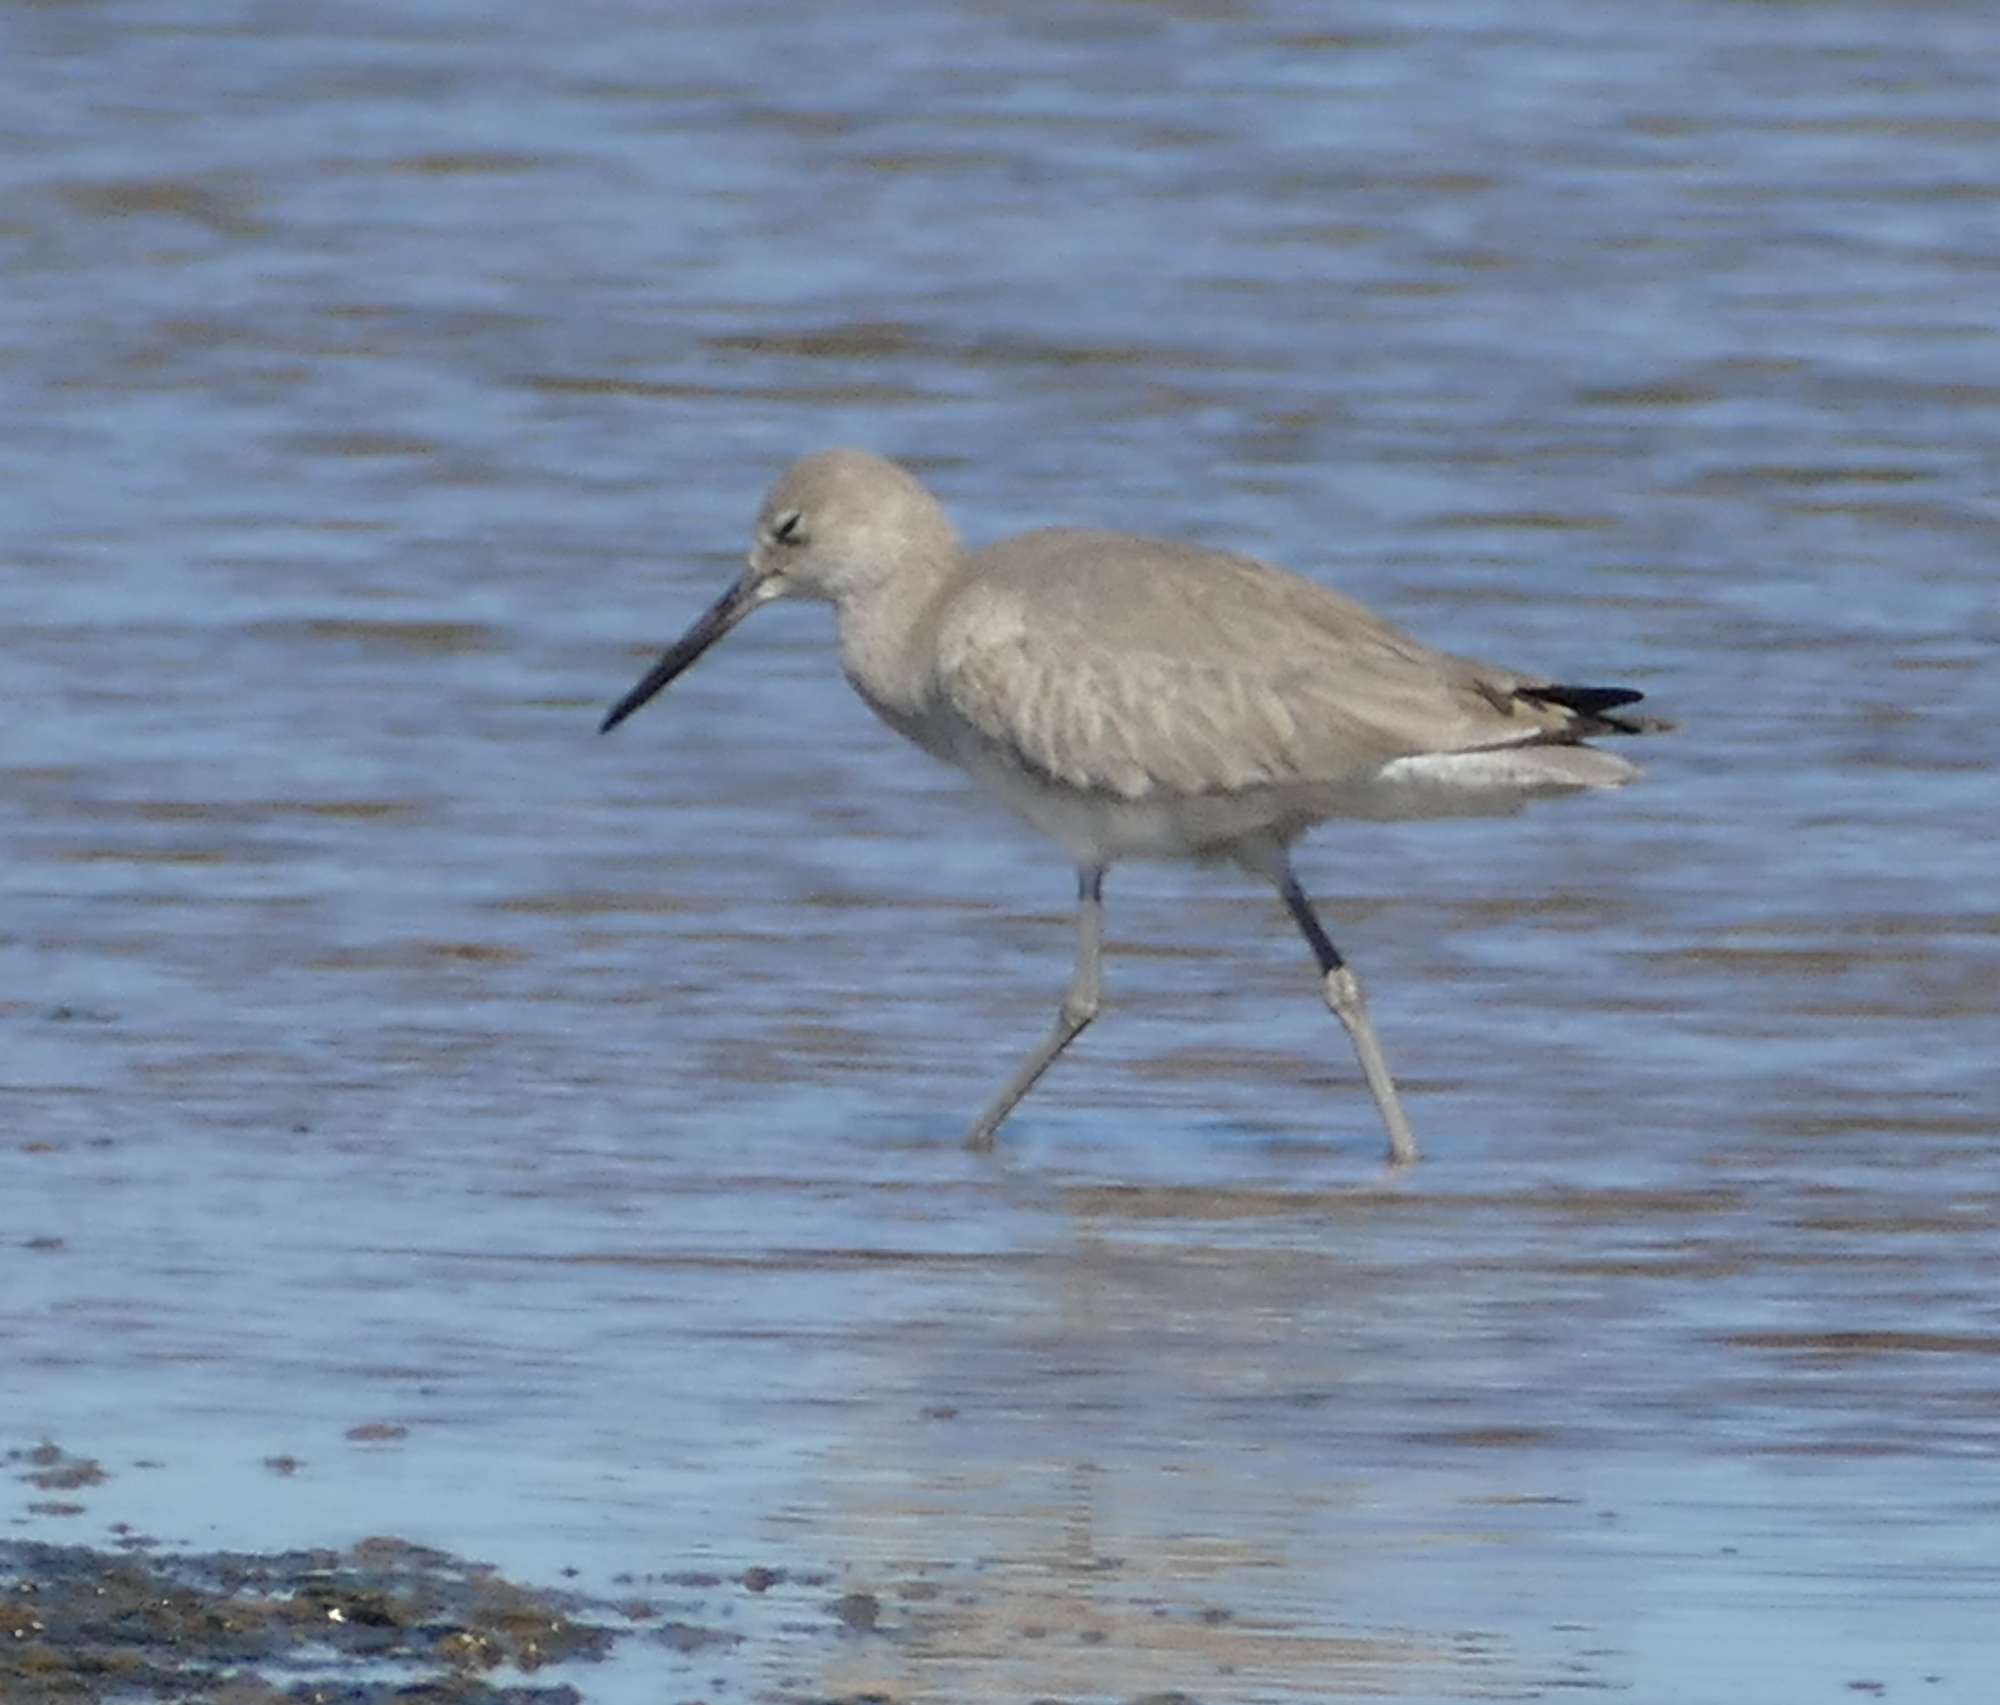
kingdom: Animalia
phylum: Chordata
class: Aves
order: Charadriiformes
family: Scolopacidae
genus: Tringa
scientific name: Tringa semipalmata
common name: Willet
